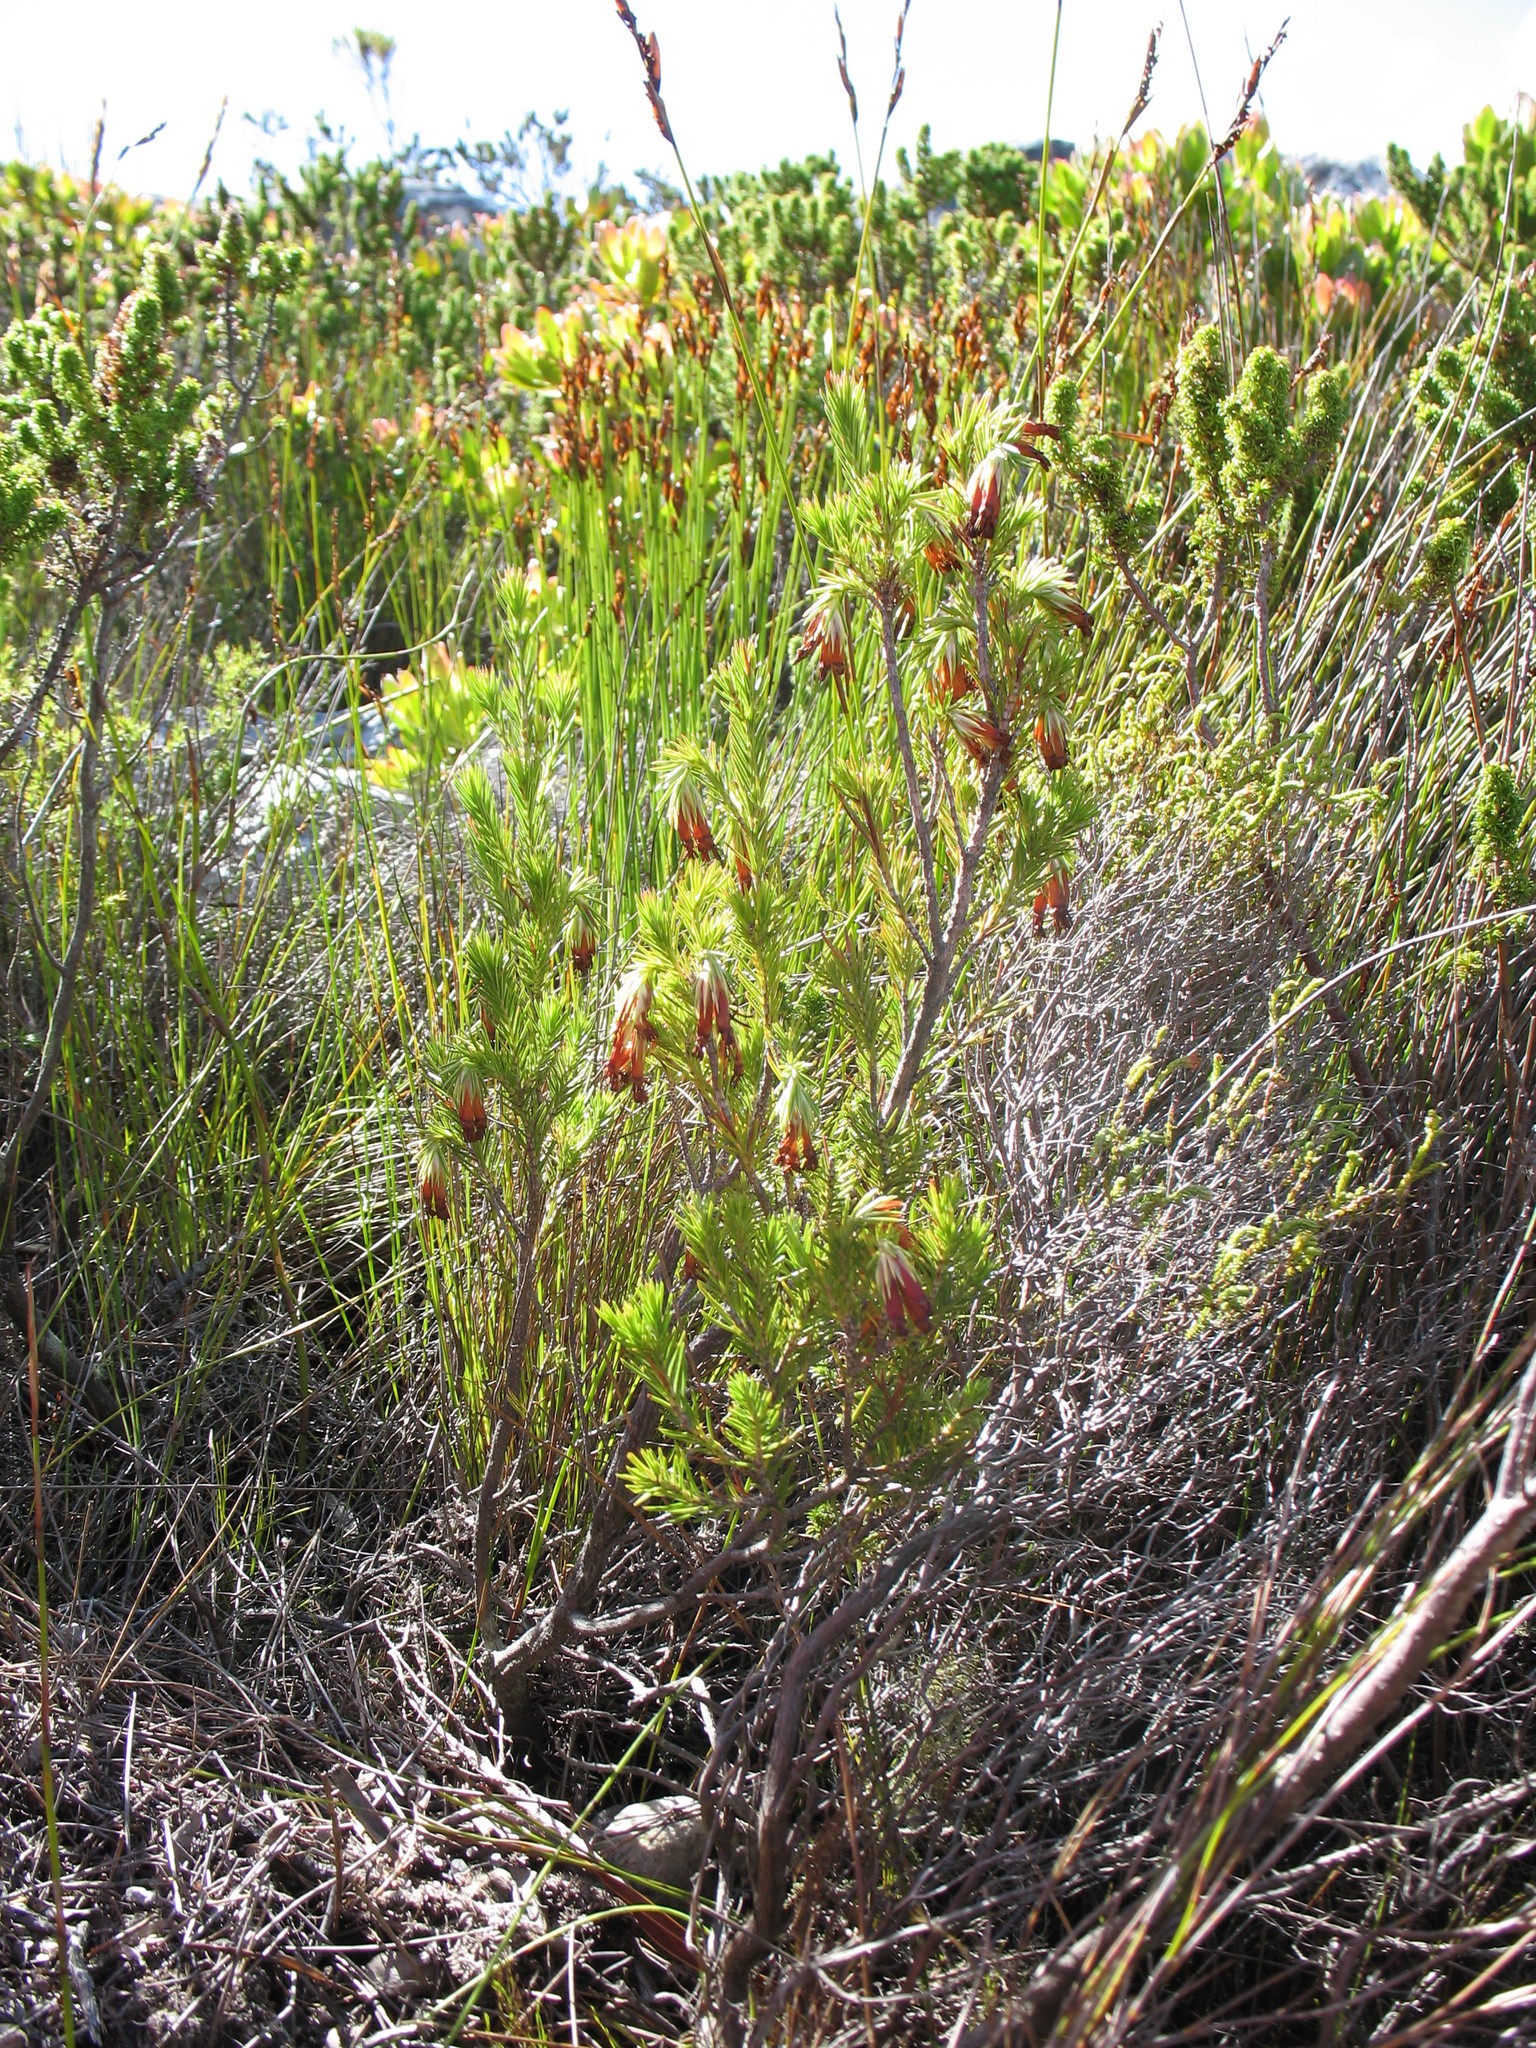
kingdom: Plantae
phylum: Tracheophyta
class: Magnoliopsida
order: Ericales
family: Ericaceae
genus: Erica
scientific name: Erica banksia
